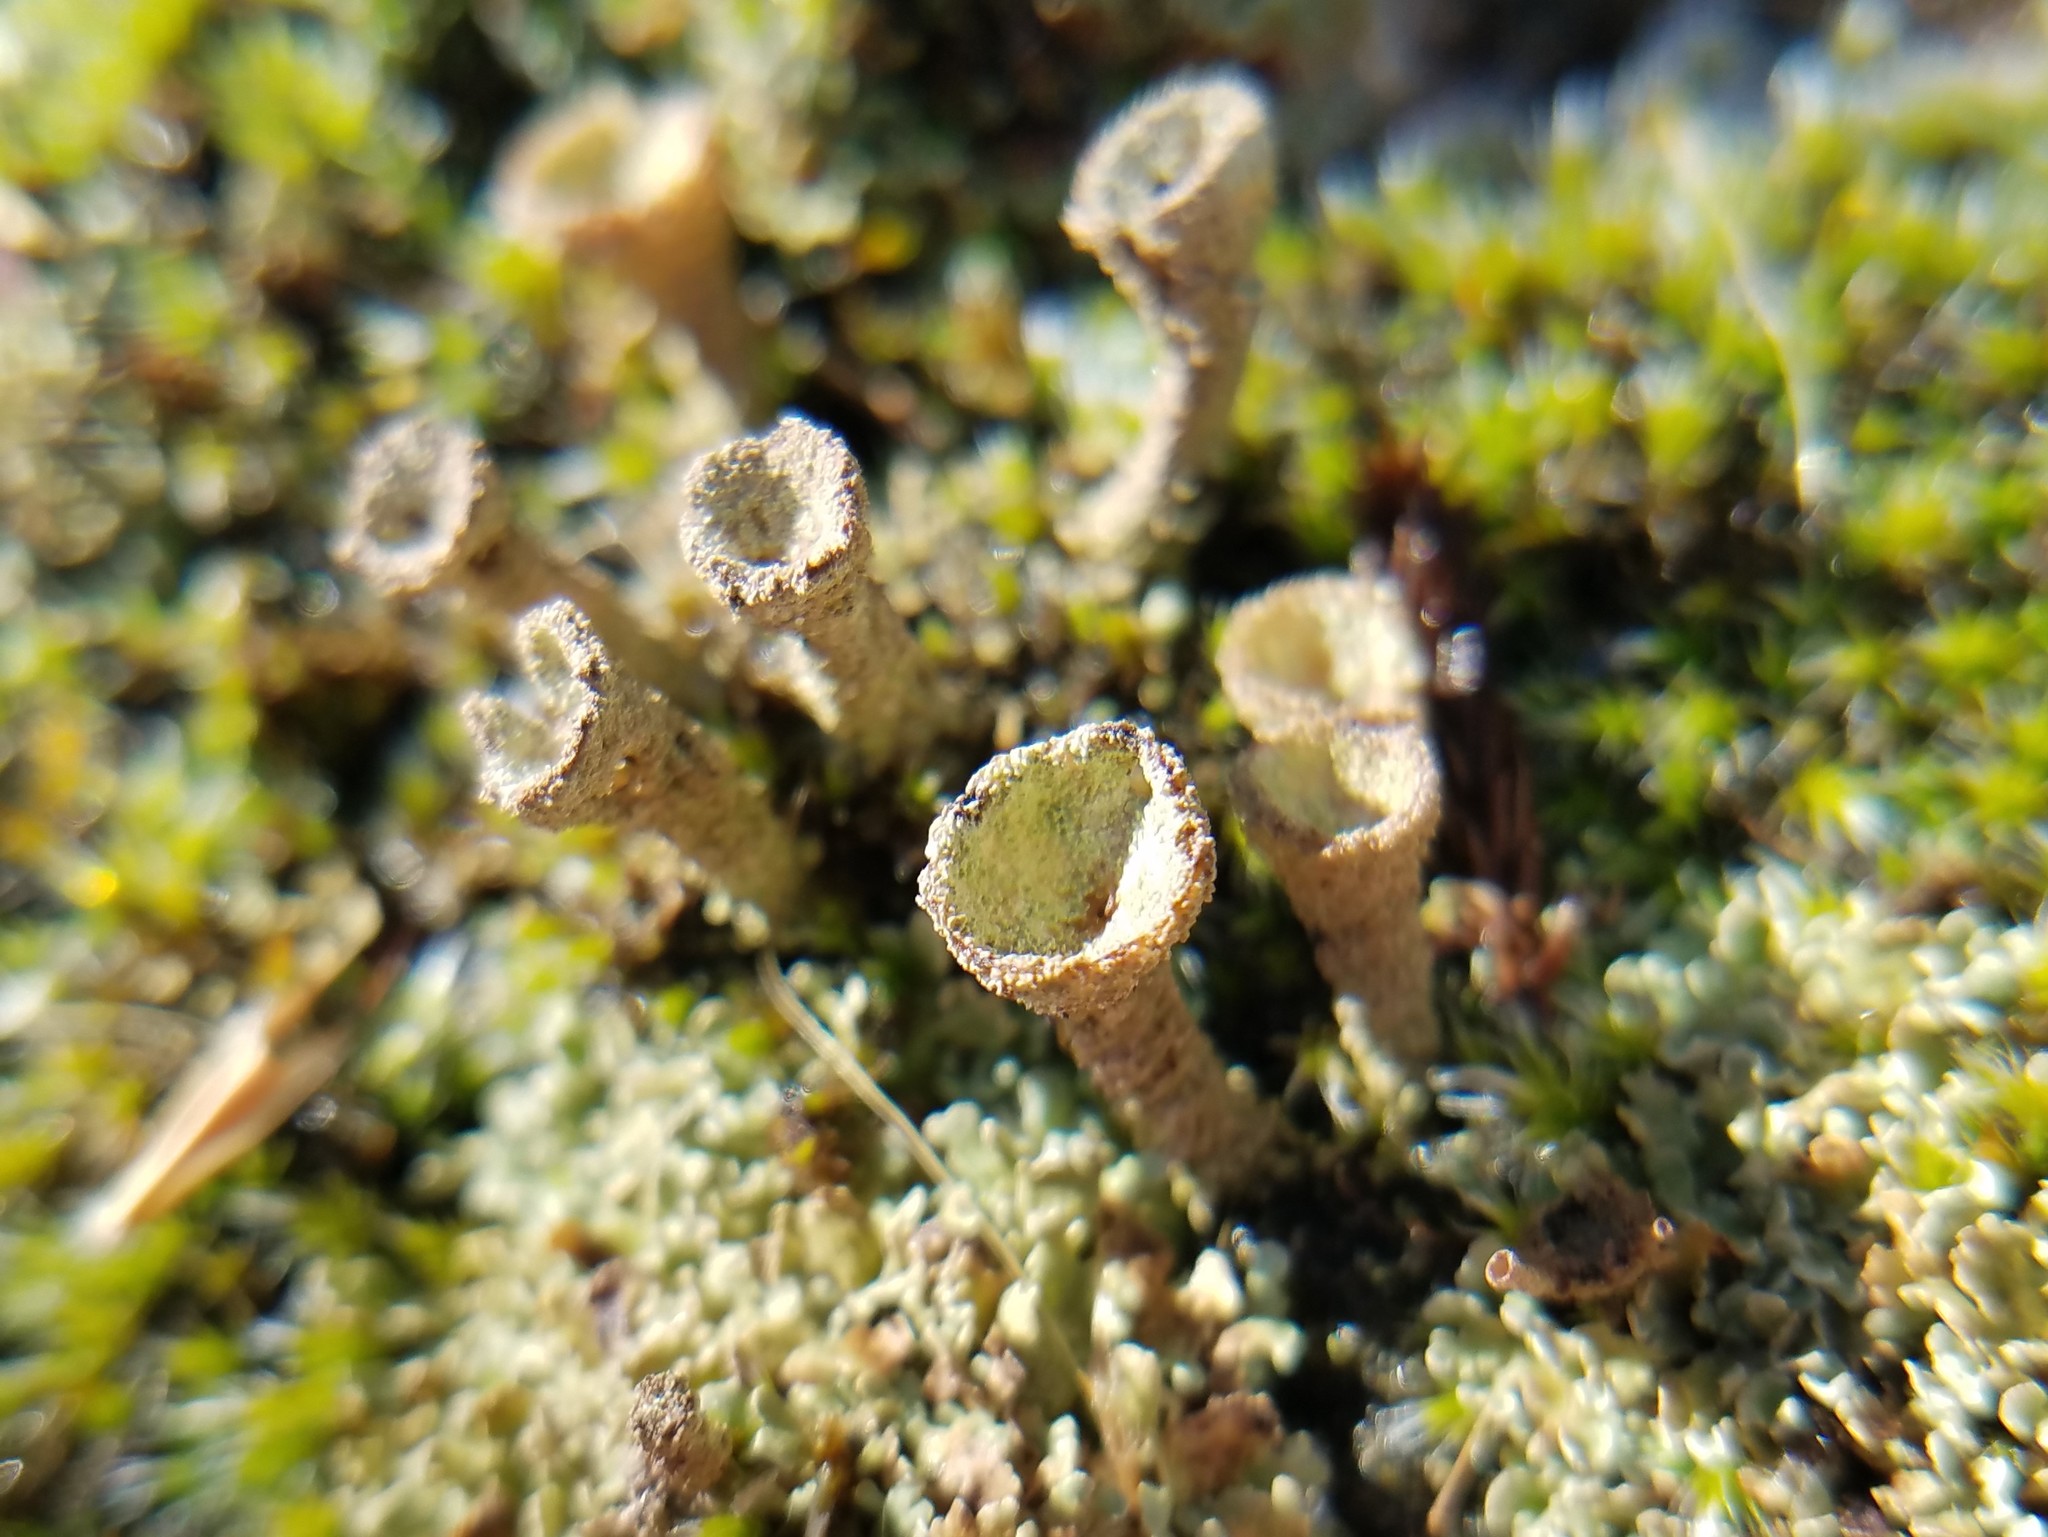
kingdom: Fungi
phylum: Ascomycota
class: Lecanoromycetes
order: Lecanorales
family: Cladoniaceae
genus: Cladonia
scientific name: Cladonia grayi
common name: Gray's cup lichen
